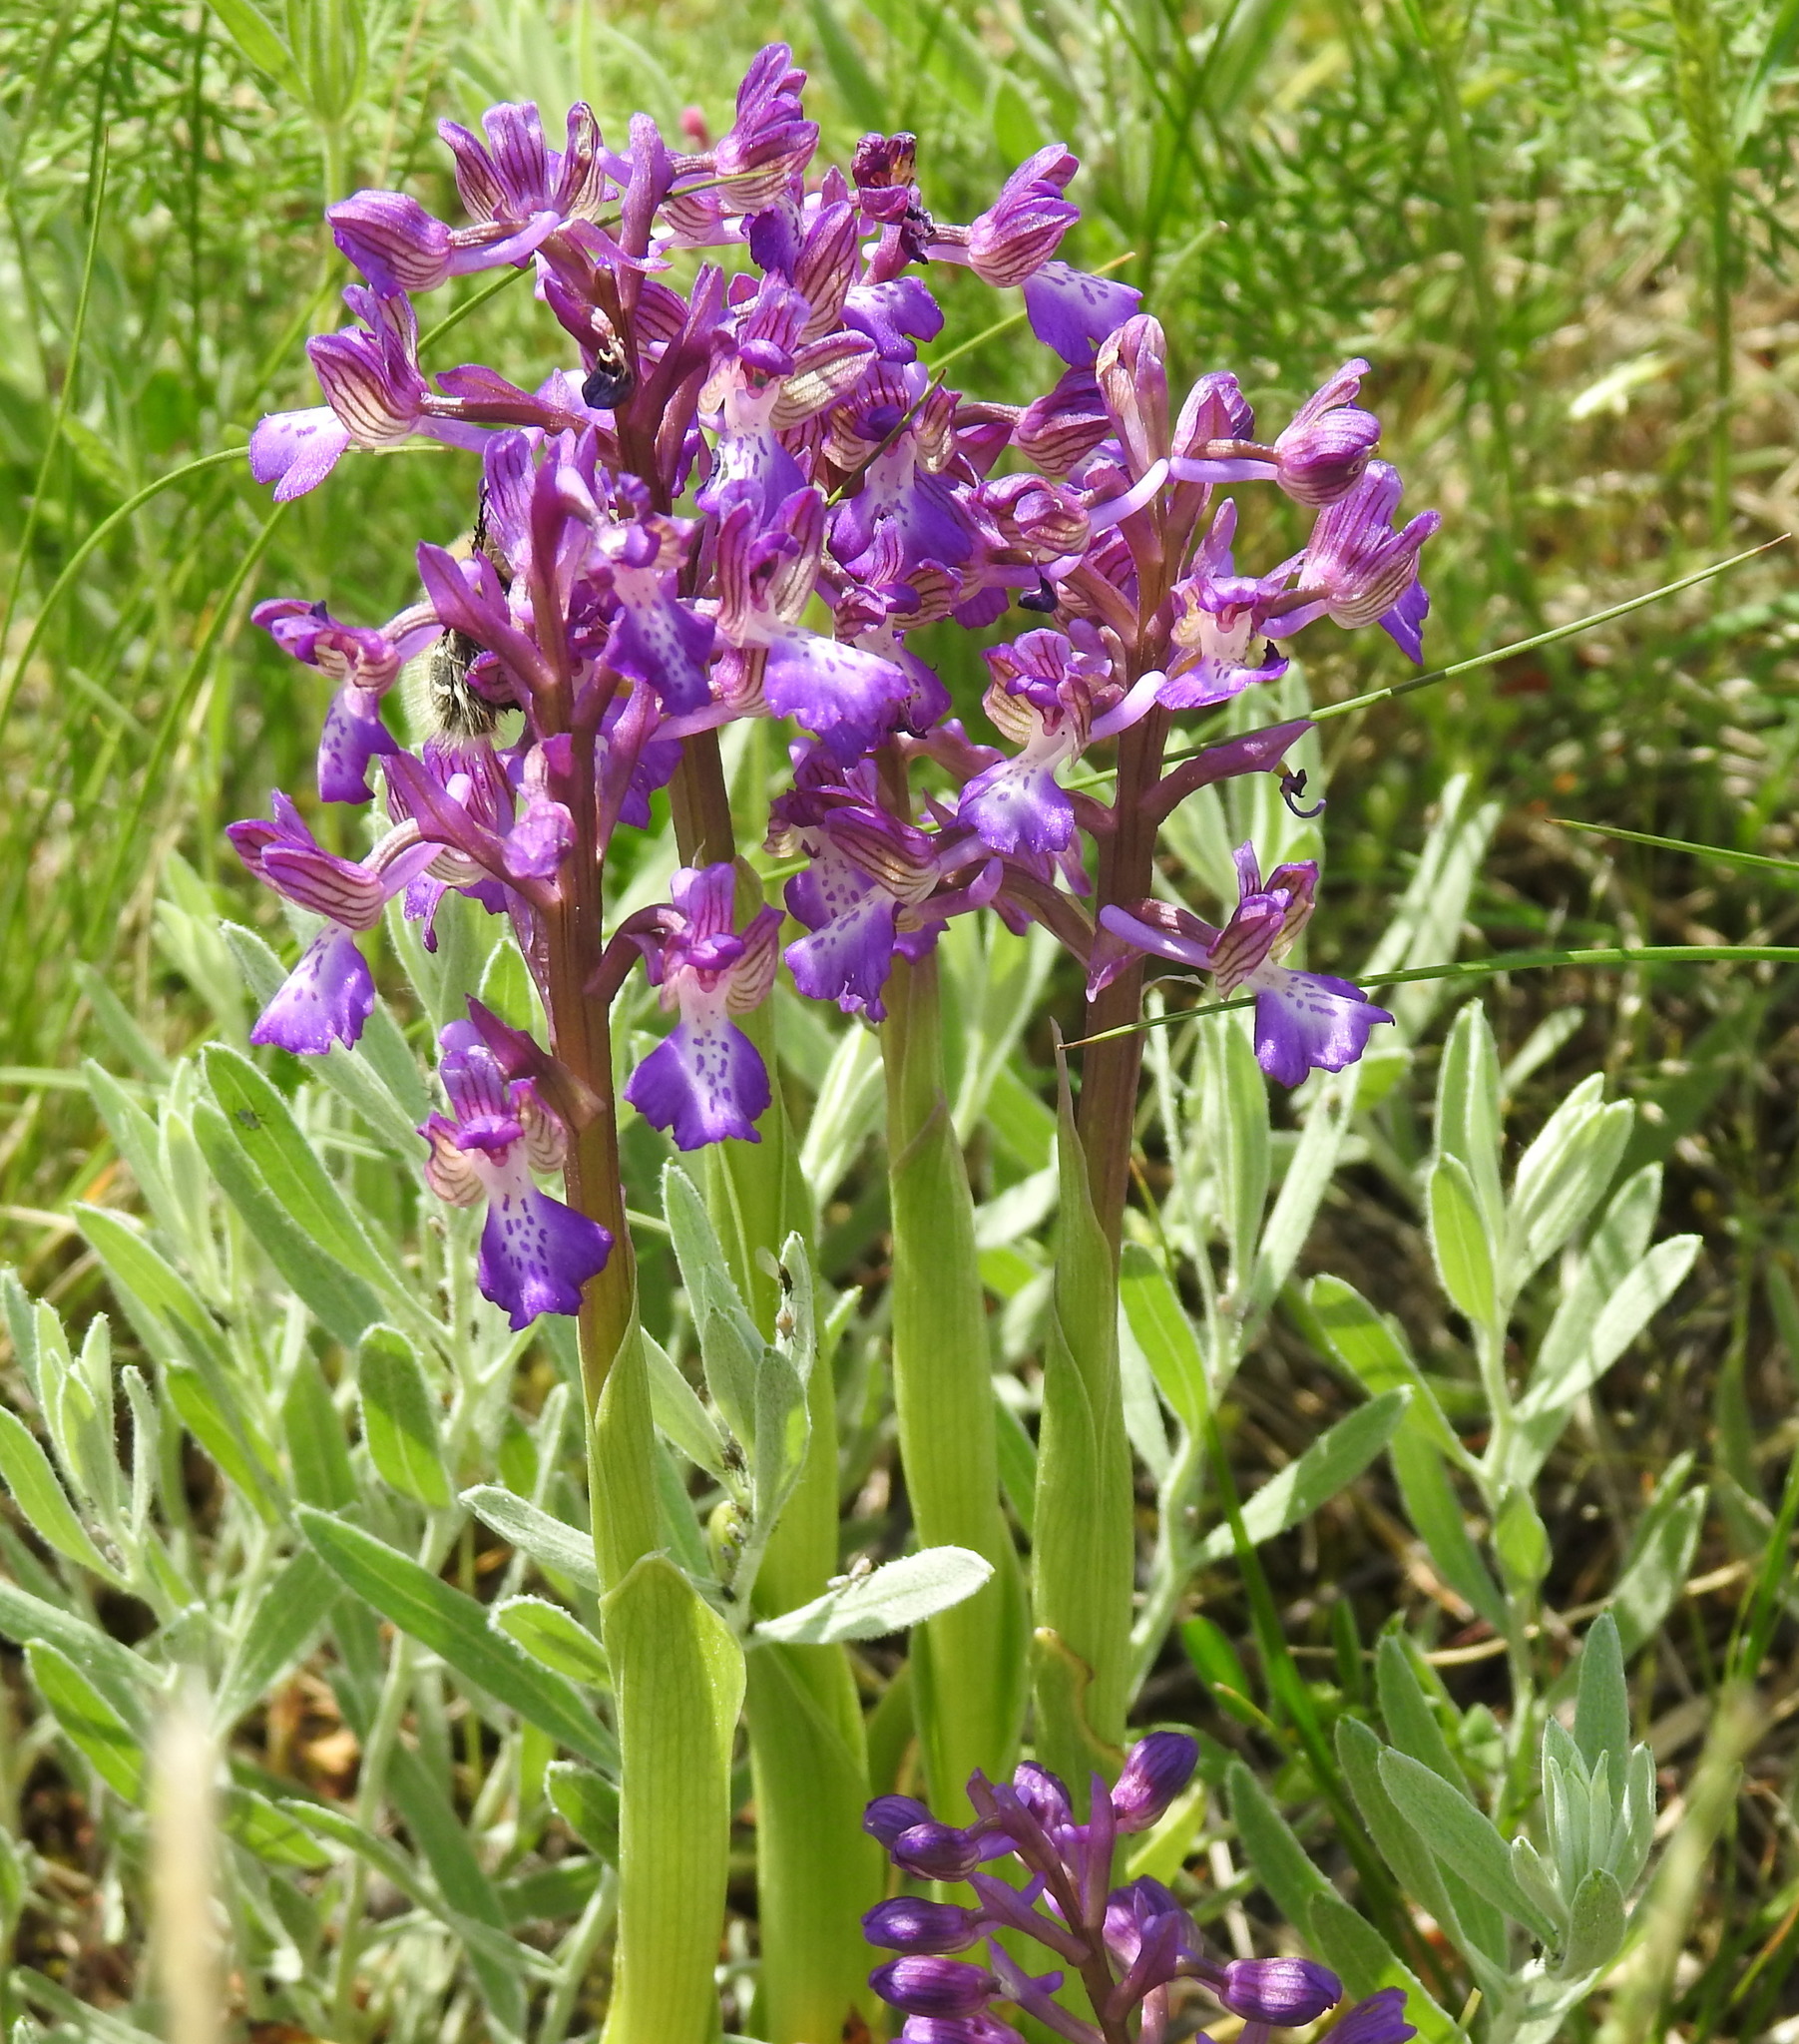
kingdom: Plantae
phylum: Tracheophyta
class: Liliopsida
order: Asparagales
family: Orchidaceae
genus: Anacamptis
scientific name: Anacamptis morio
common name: Green-winged orchid
